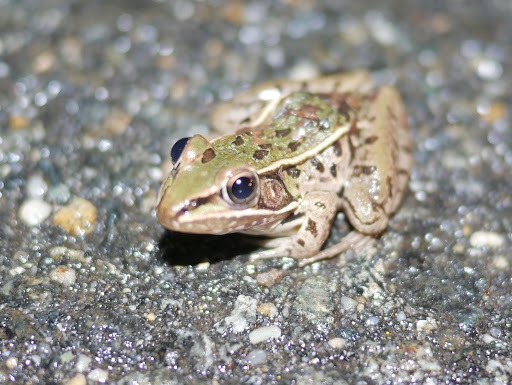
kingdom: Animalia
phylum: Chordata
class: Amphibia
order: Anura
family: Ranidae
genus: Lithobates
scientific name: Lithobates sphenocephalus
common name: Southern leopard frog
